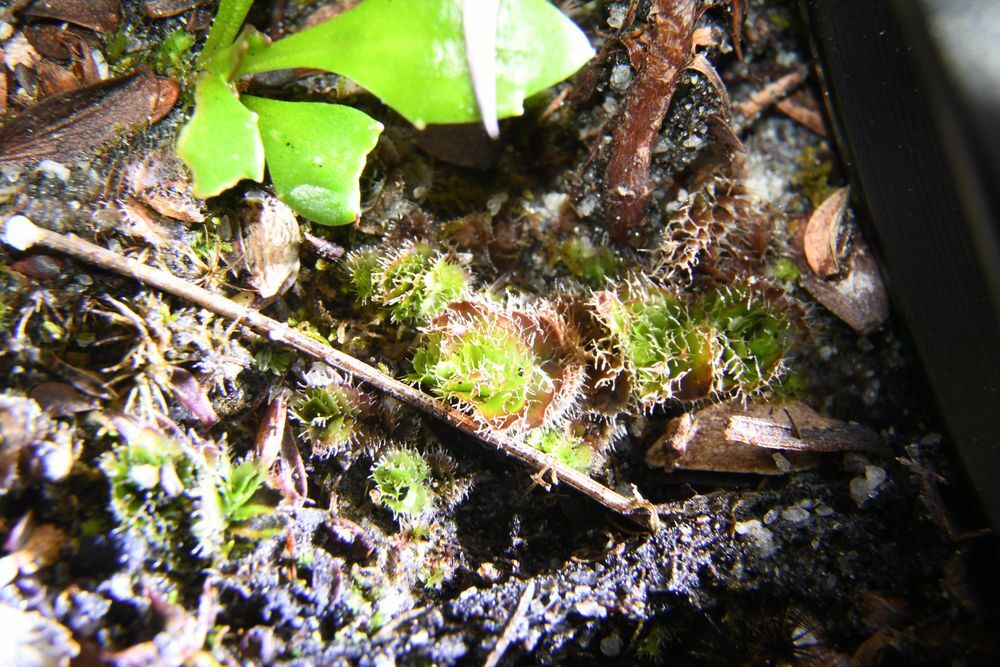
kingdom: Plantae
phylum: Marchantiophyta
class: Jungermanniopsida
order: Jungermanniales
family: Cephaloziellaceae
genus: Chaetophyllopsis
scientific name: Chaetophyllopsis whiteleggei
